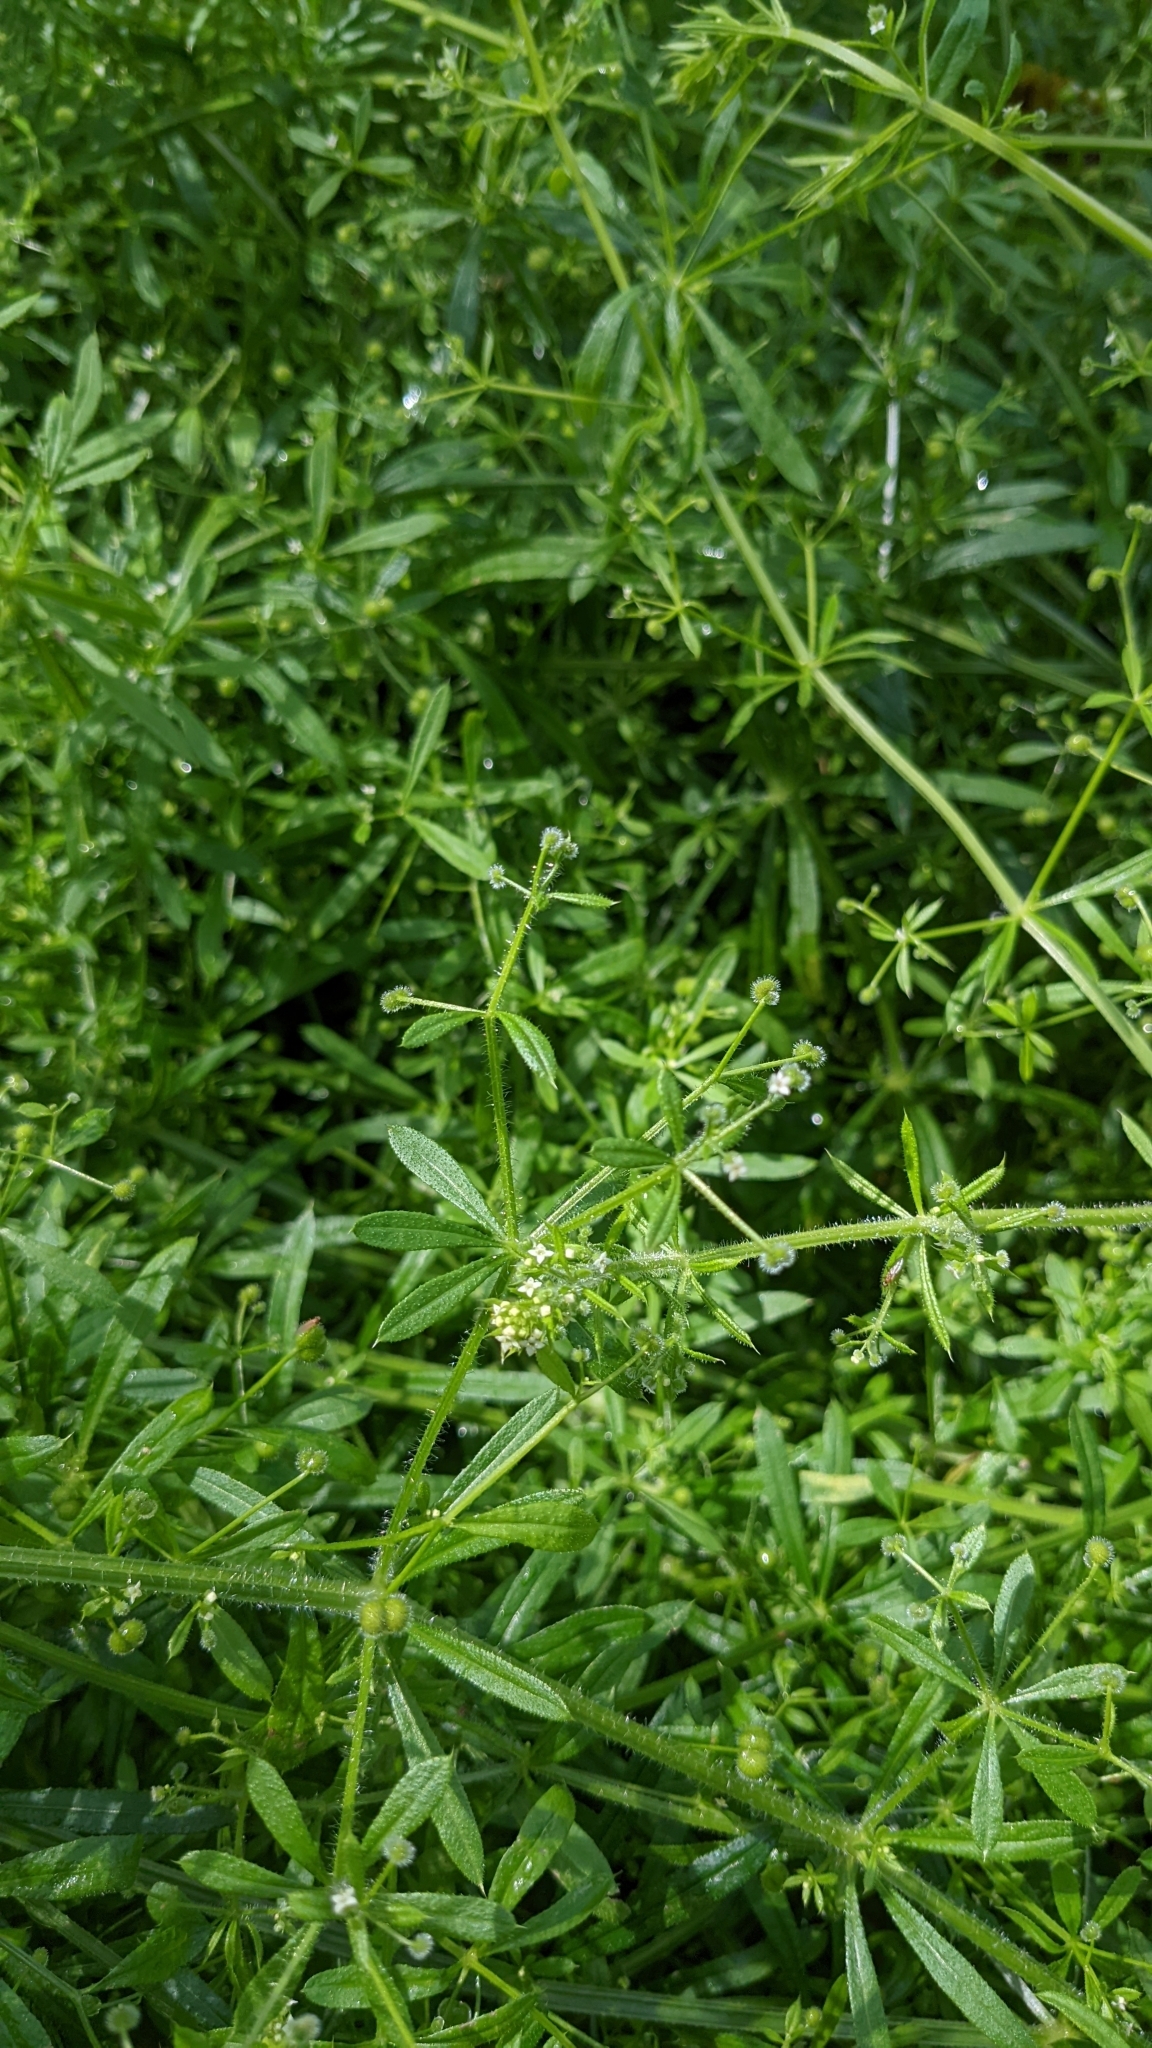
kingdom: Plantae
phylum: Tracheophyta
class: Magnoliopsida
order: Gentianales
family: Rubiaceae
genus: Galium
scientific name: Galium aparine
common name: Cleavers
